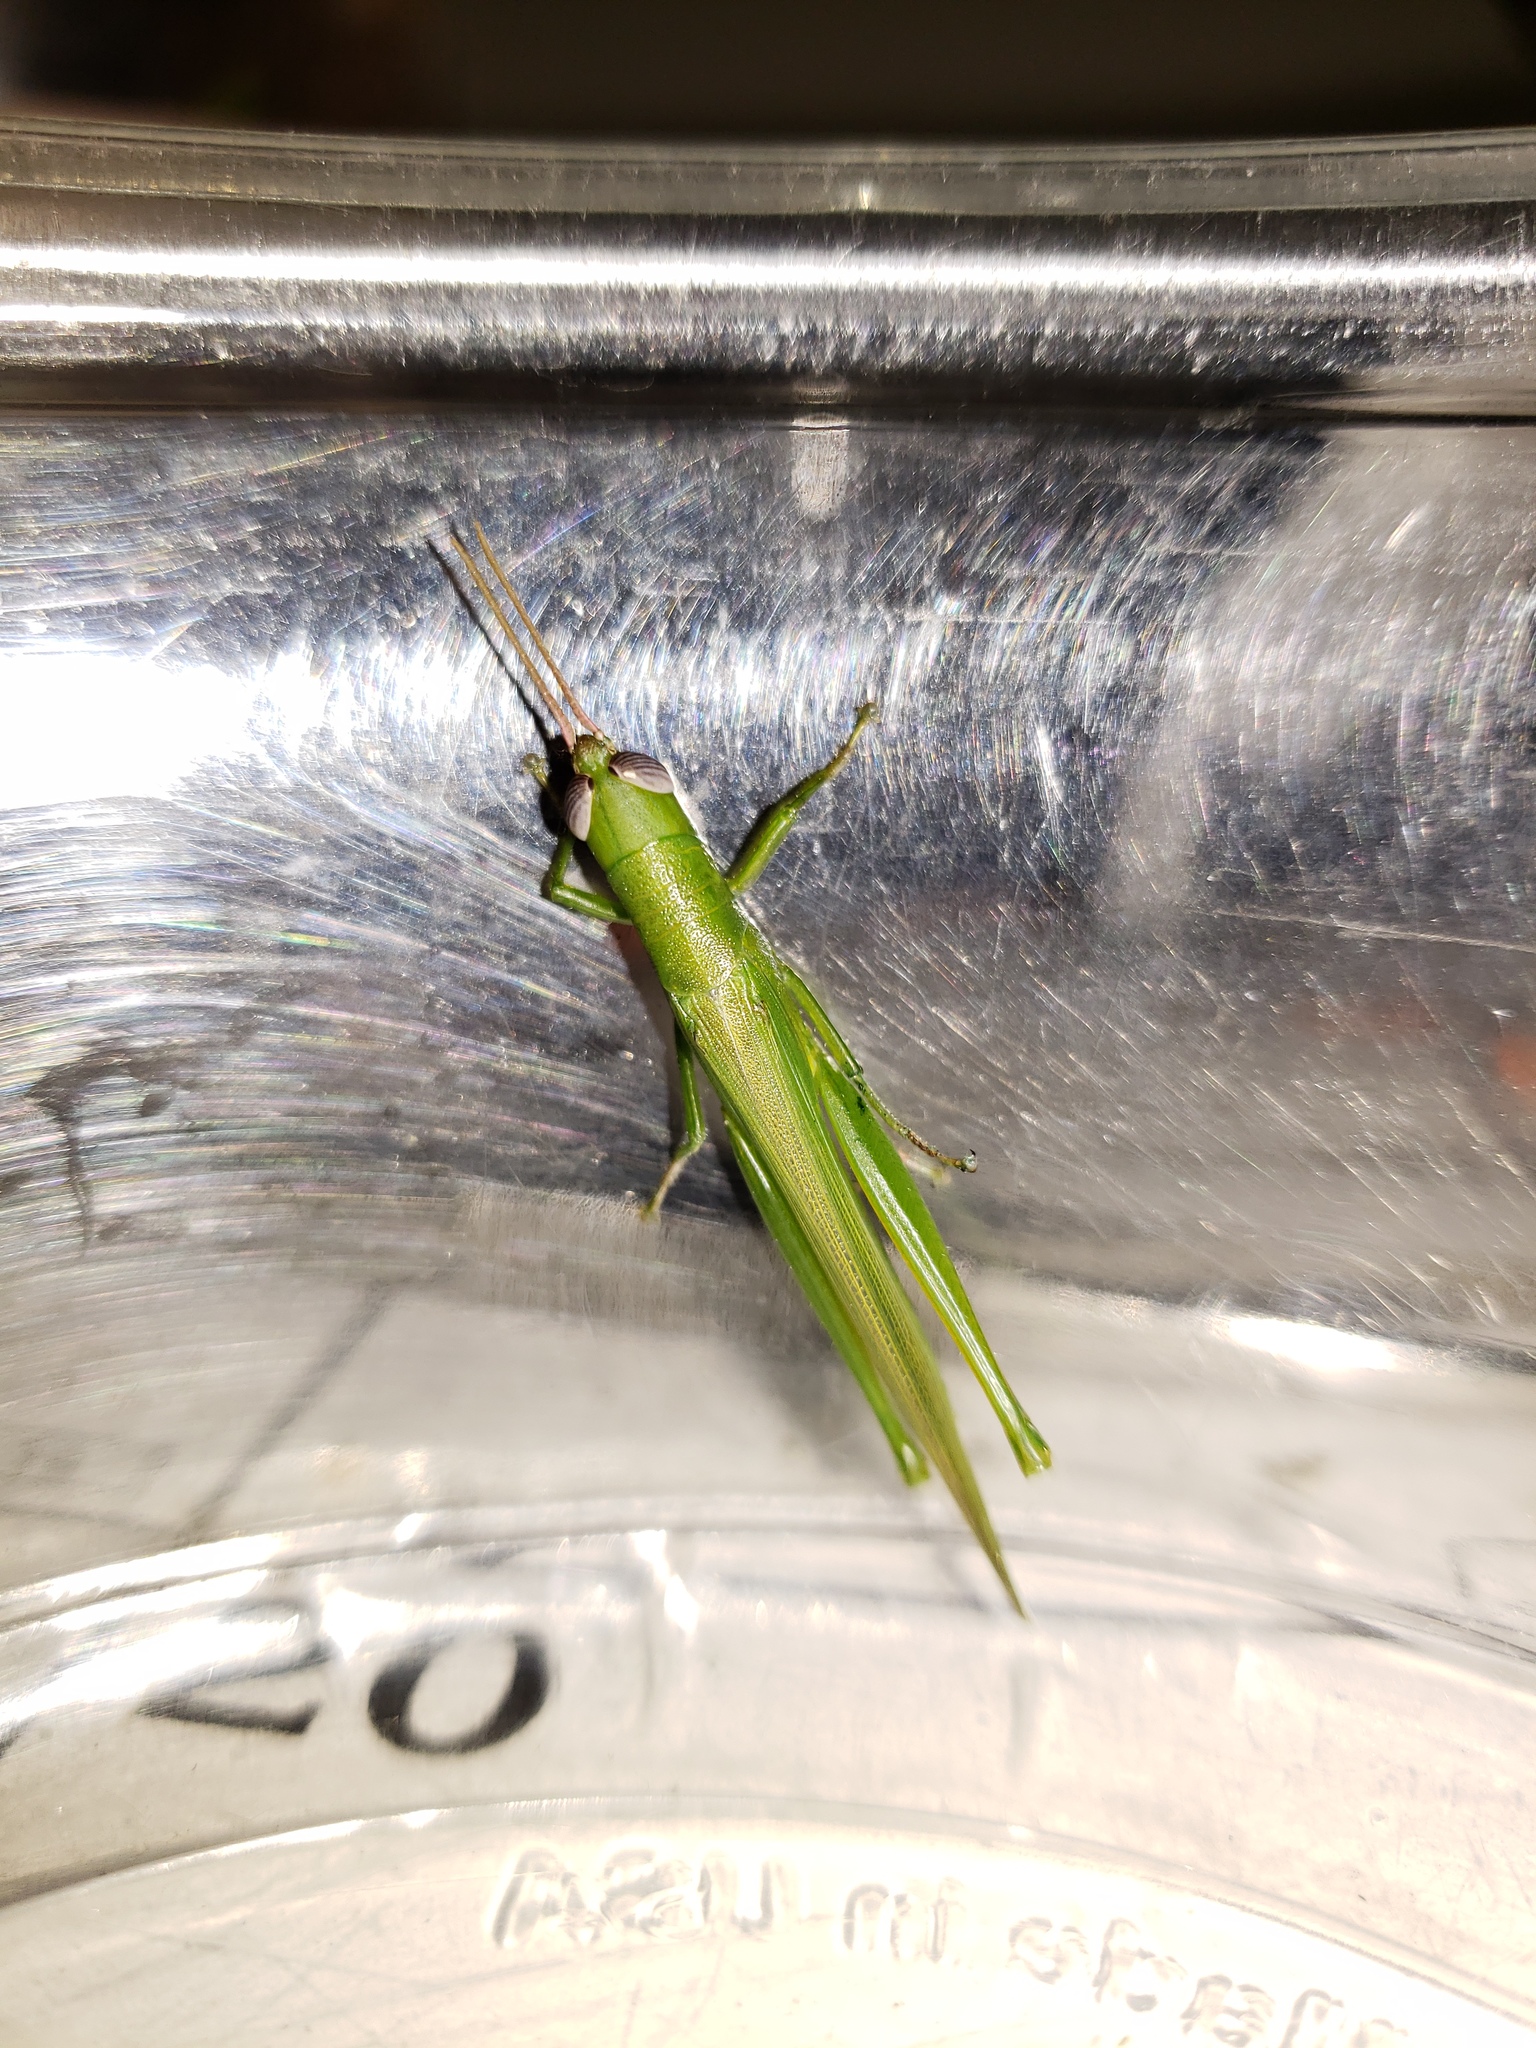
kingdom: Animalia
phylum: Arthropoda
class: Insecta
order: Orthoptera
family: Acrididae
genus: Stenacris
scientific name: Stenacris vitreipennis
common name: Glassy-winged toothpick grasshopper
